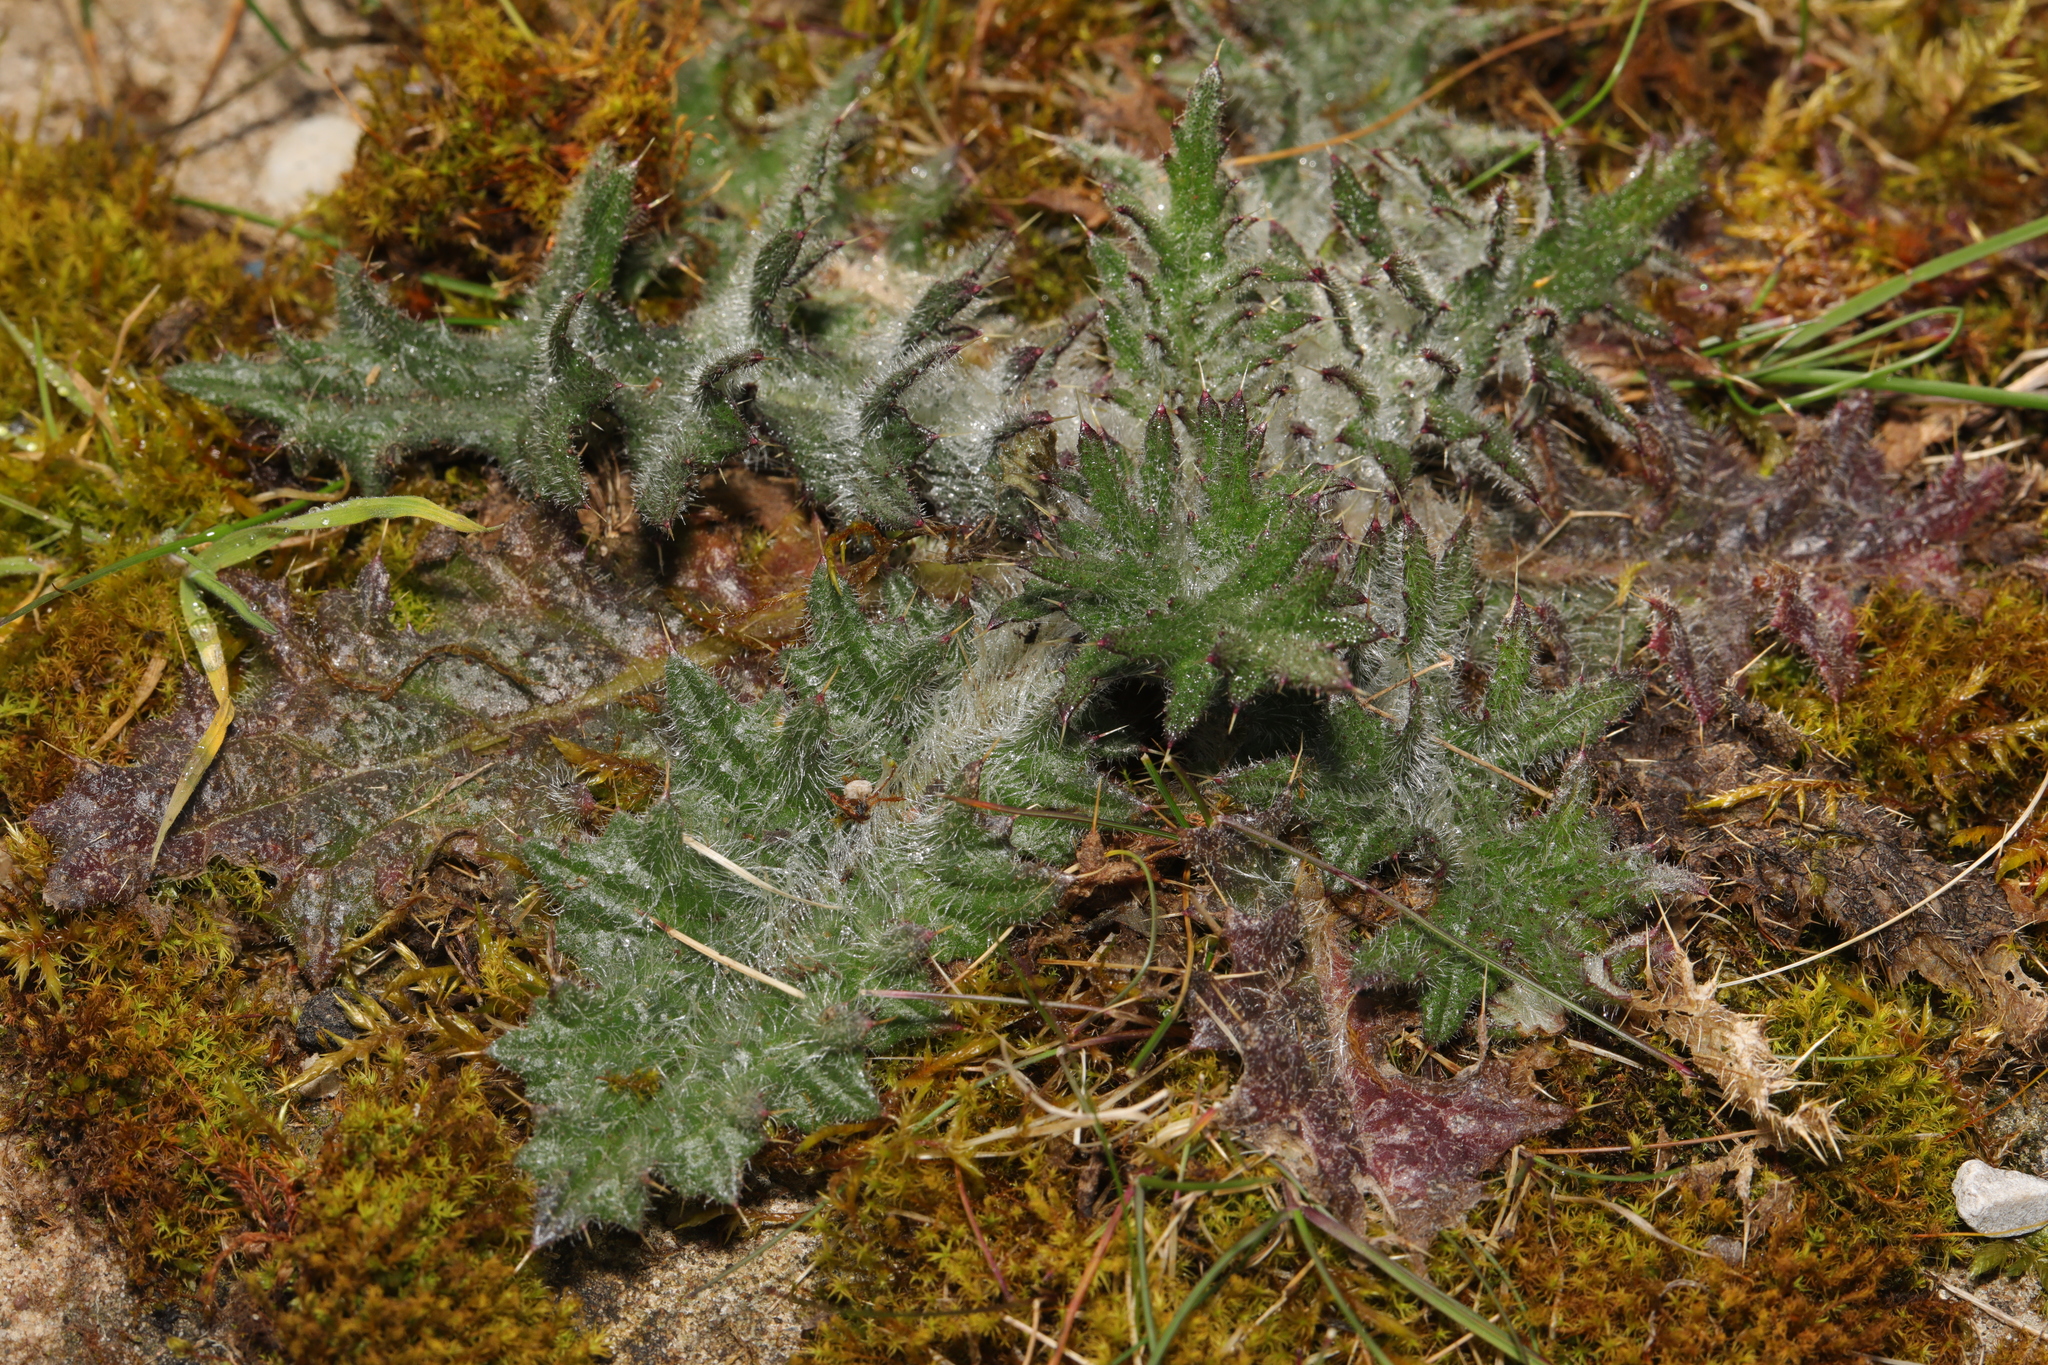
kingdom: Plantae
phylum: Tracheophyta
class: Magnoliopsida
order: Asterales
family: Asteraceae
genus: Cirsium
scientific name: Cirsium vulgare
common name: Bull thistle
